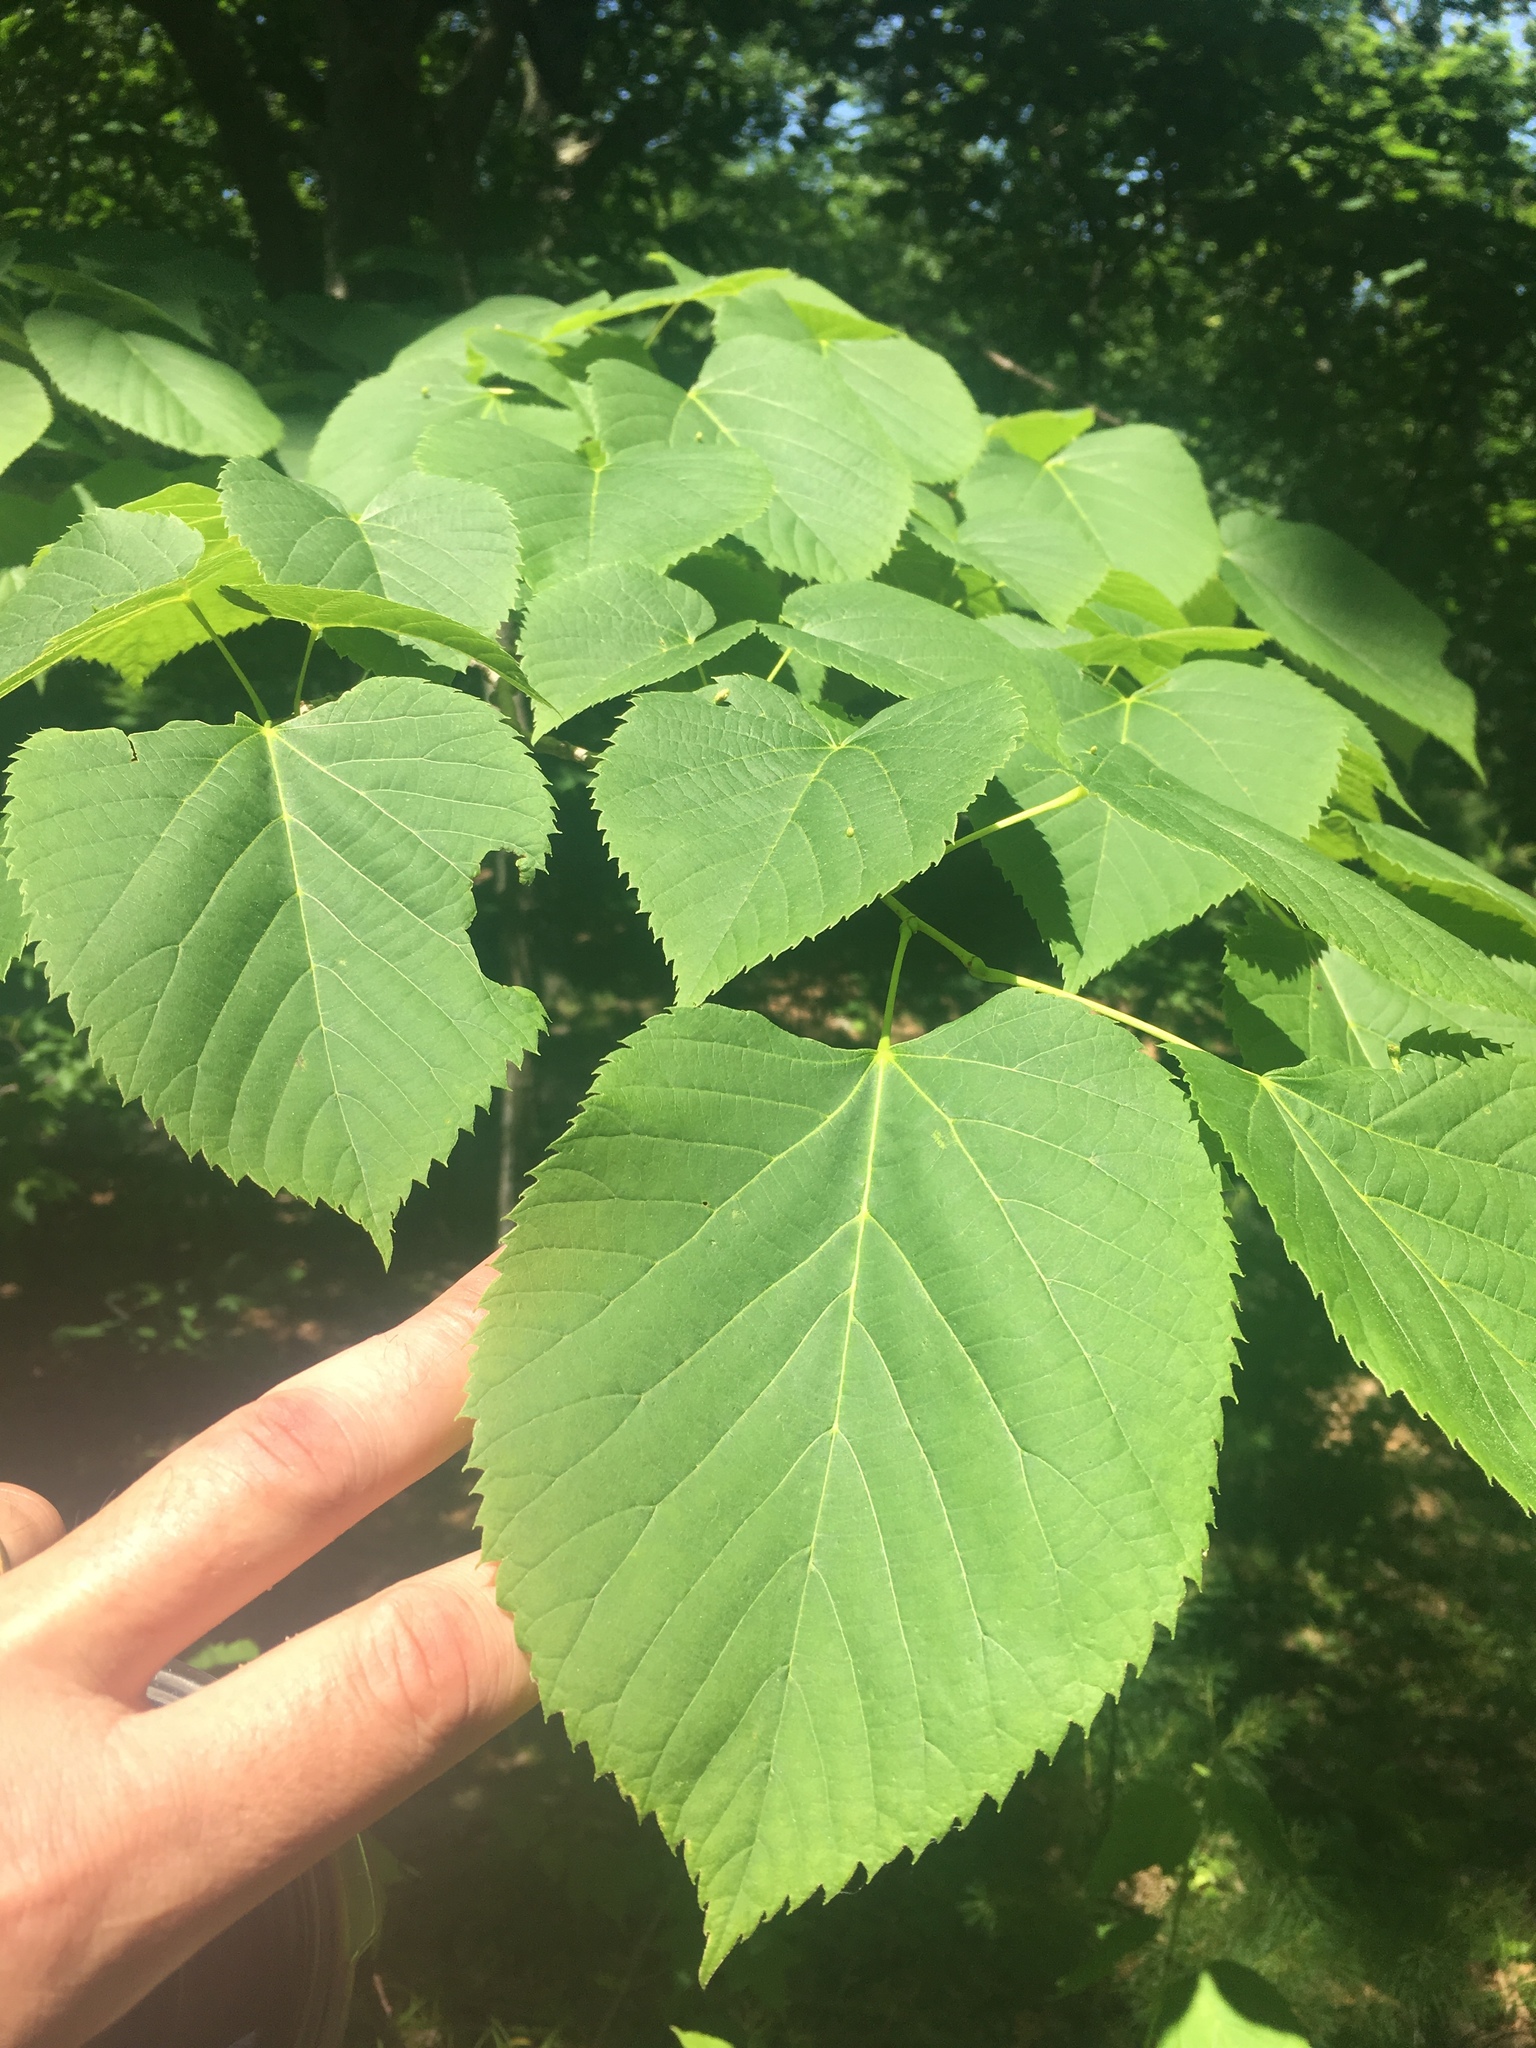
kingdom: Plantae
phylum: Tracheophyta
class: Magnoliopsida
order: Malvales
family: Malvaceae
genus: Tilia
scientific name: Tilia americana
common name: Basswood
